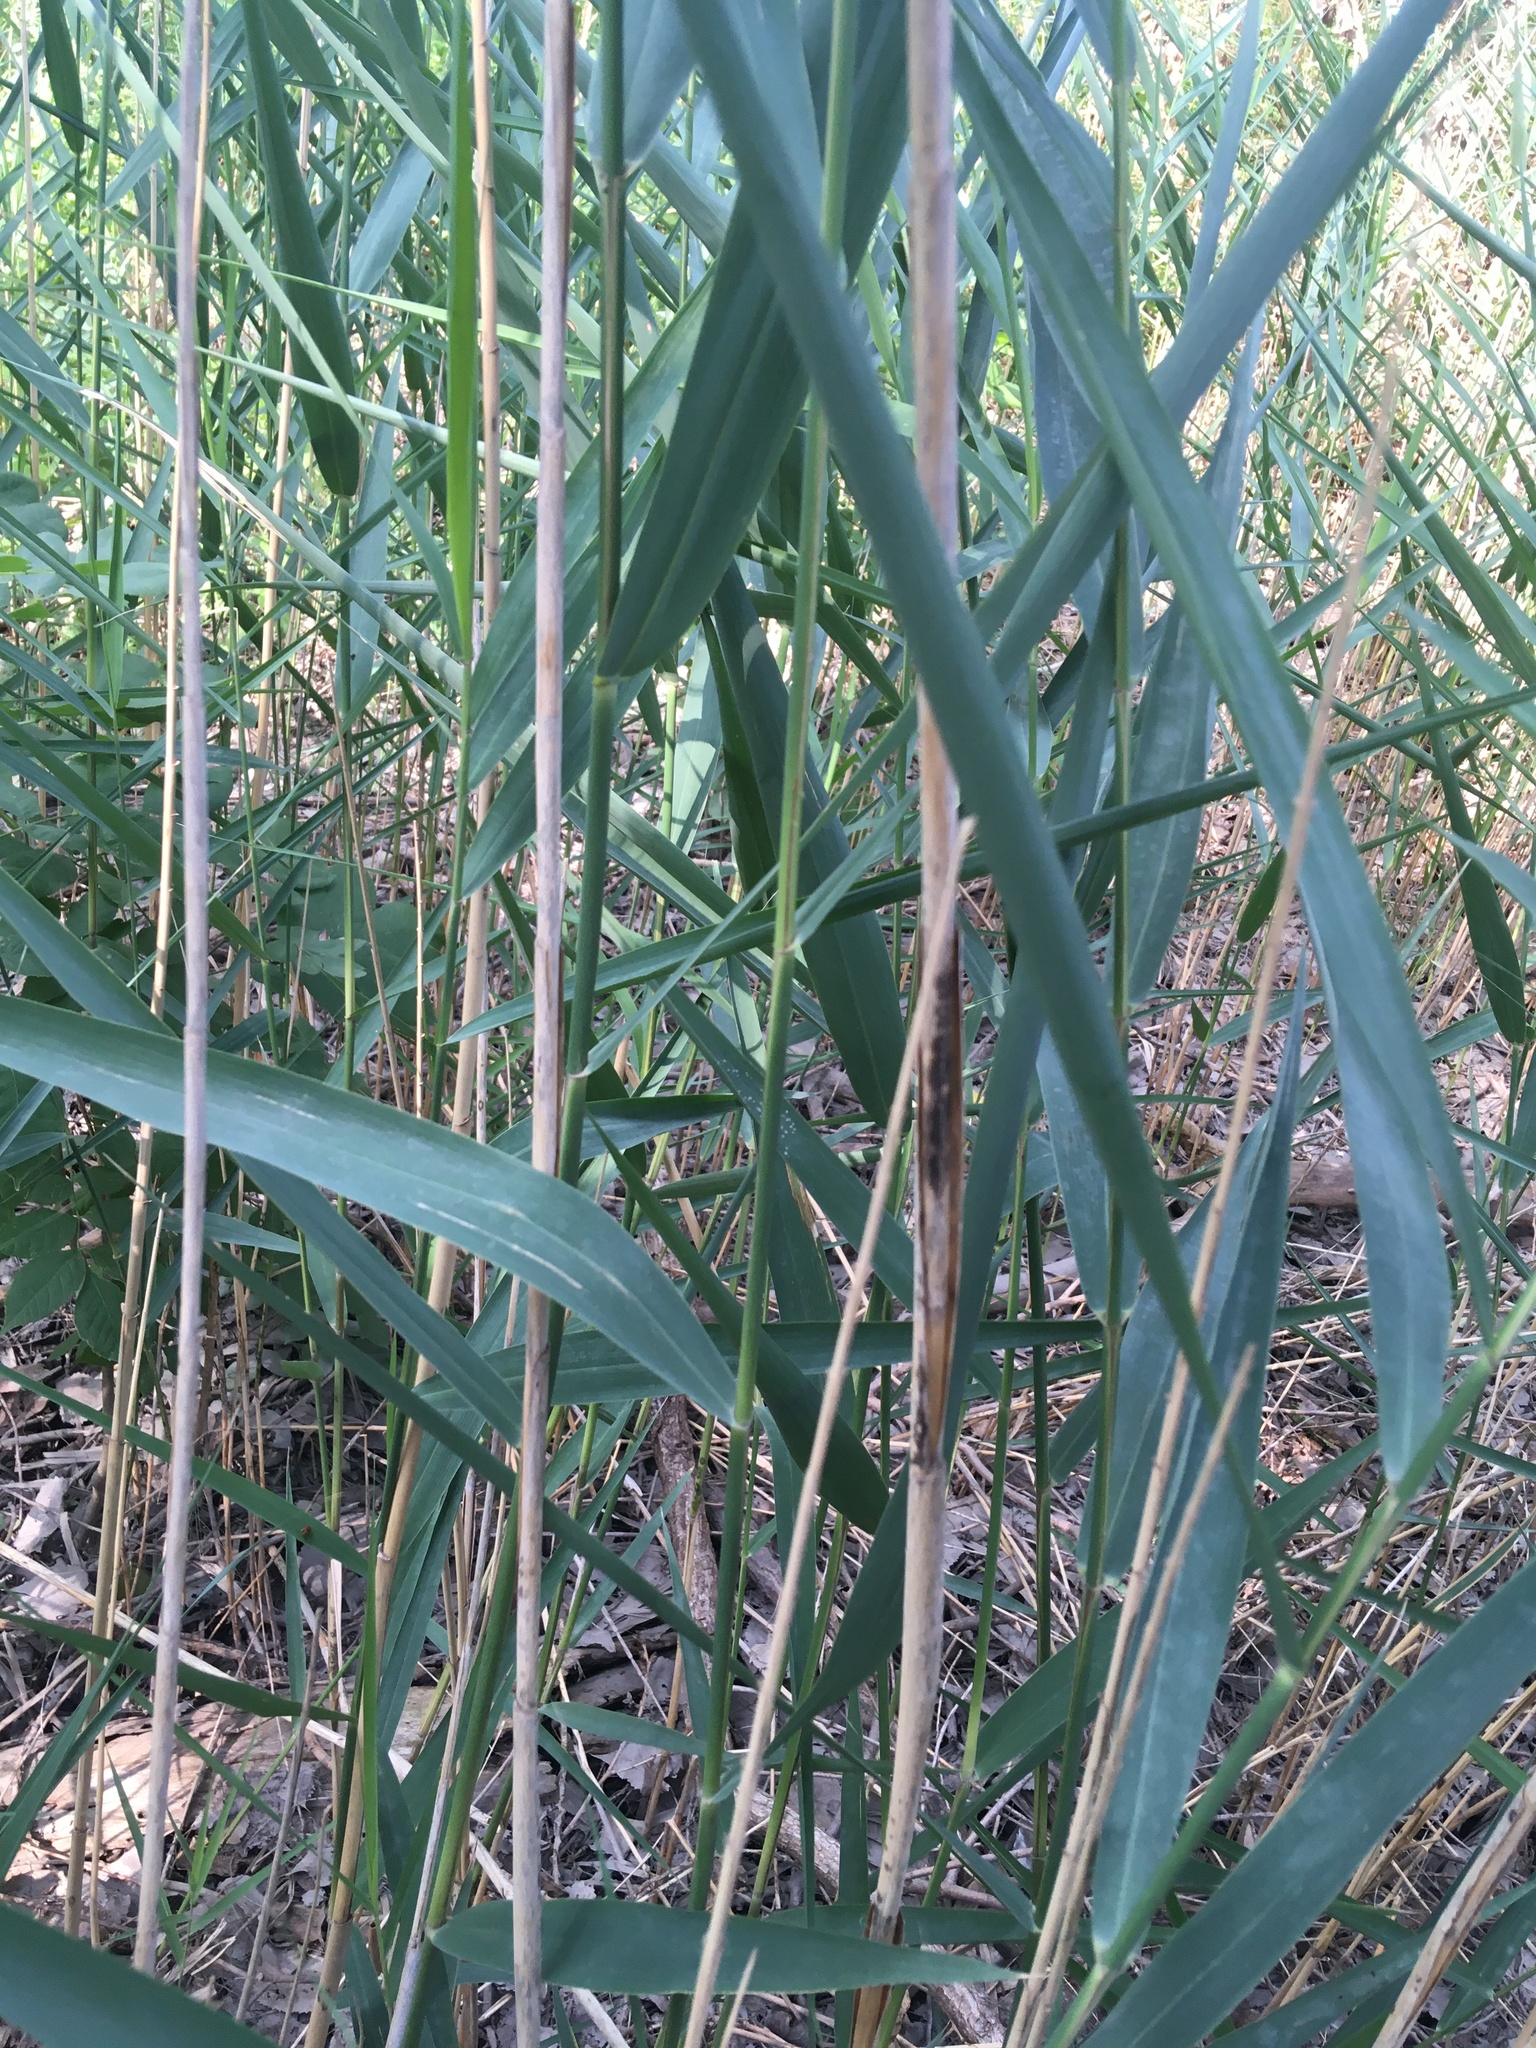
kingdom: Plantae
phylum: Tracheophyta
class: Liliopsida
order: Poales
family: Poaceae
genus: Phragmites
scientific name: Phragmites australis
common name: Common reed
